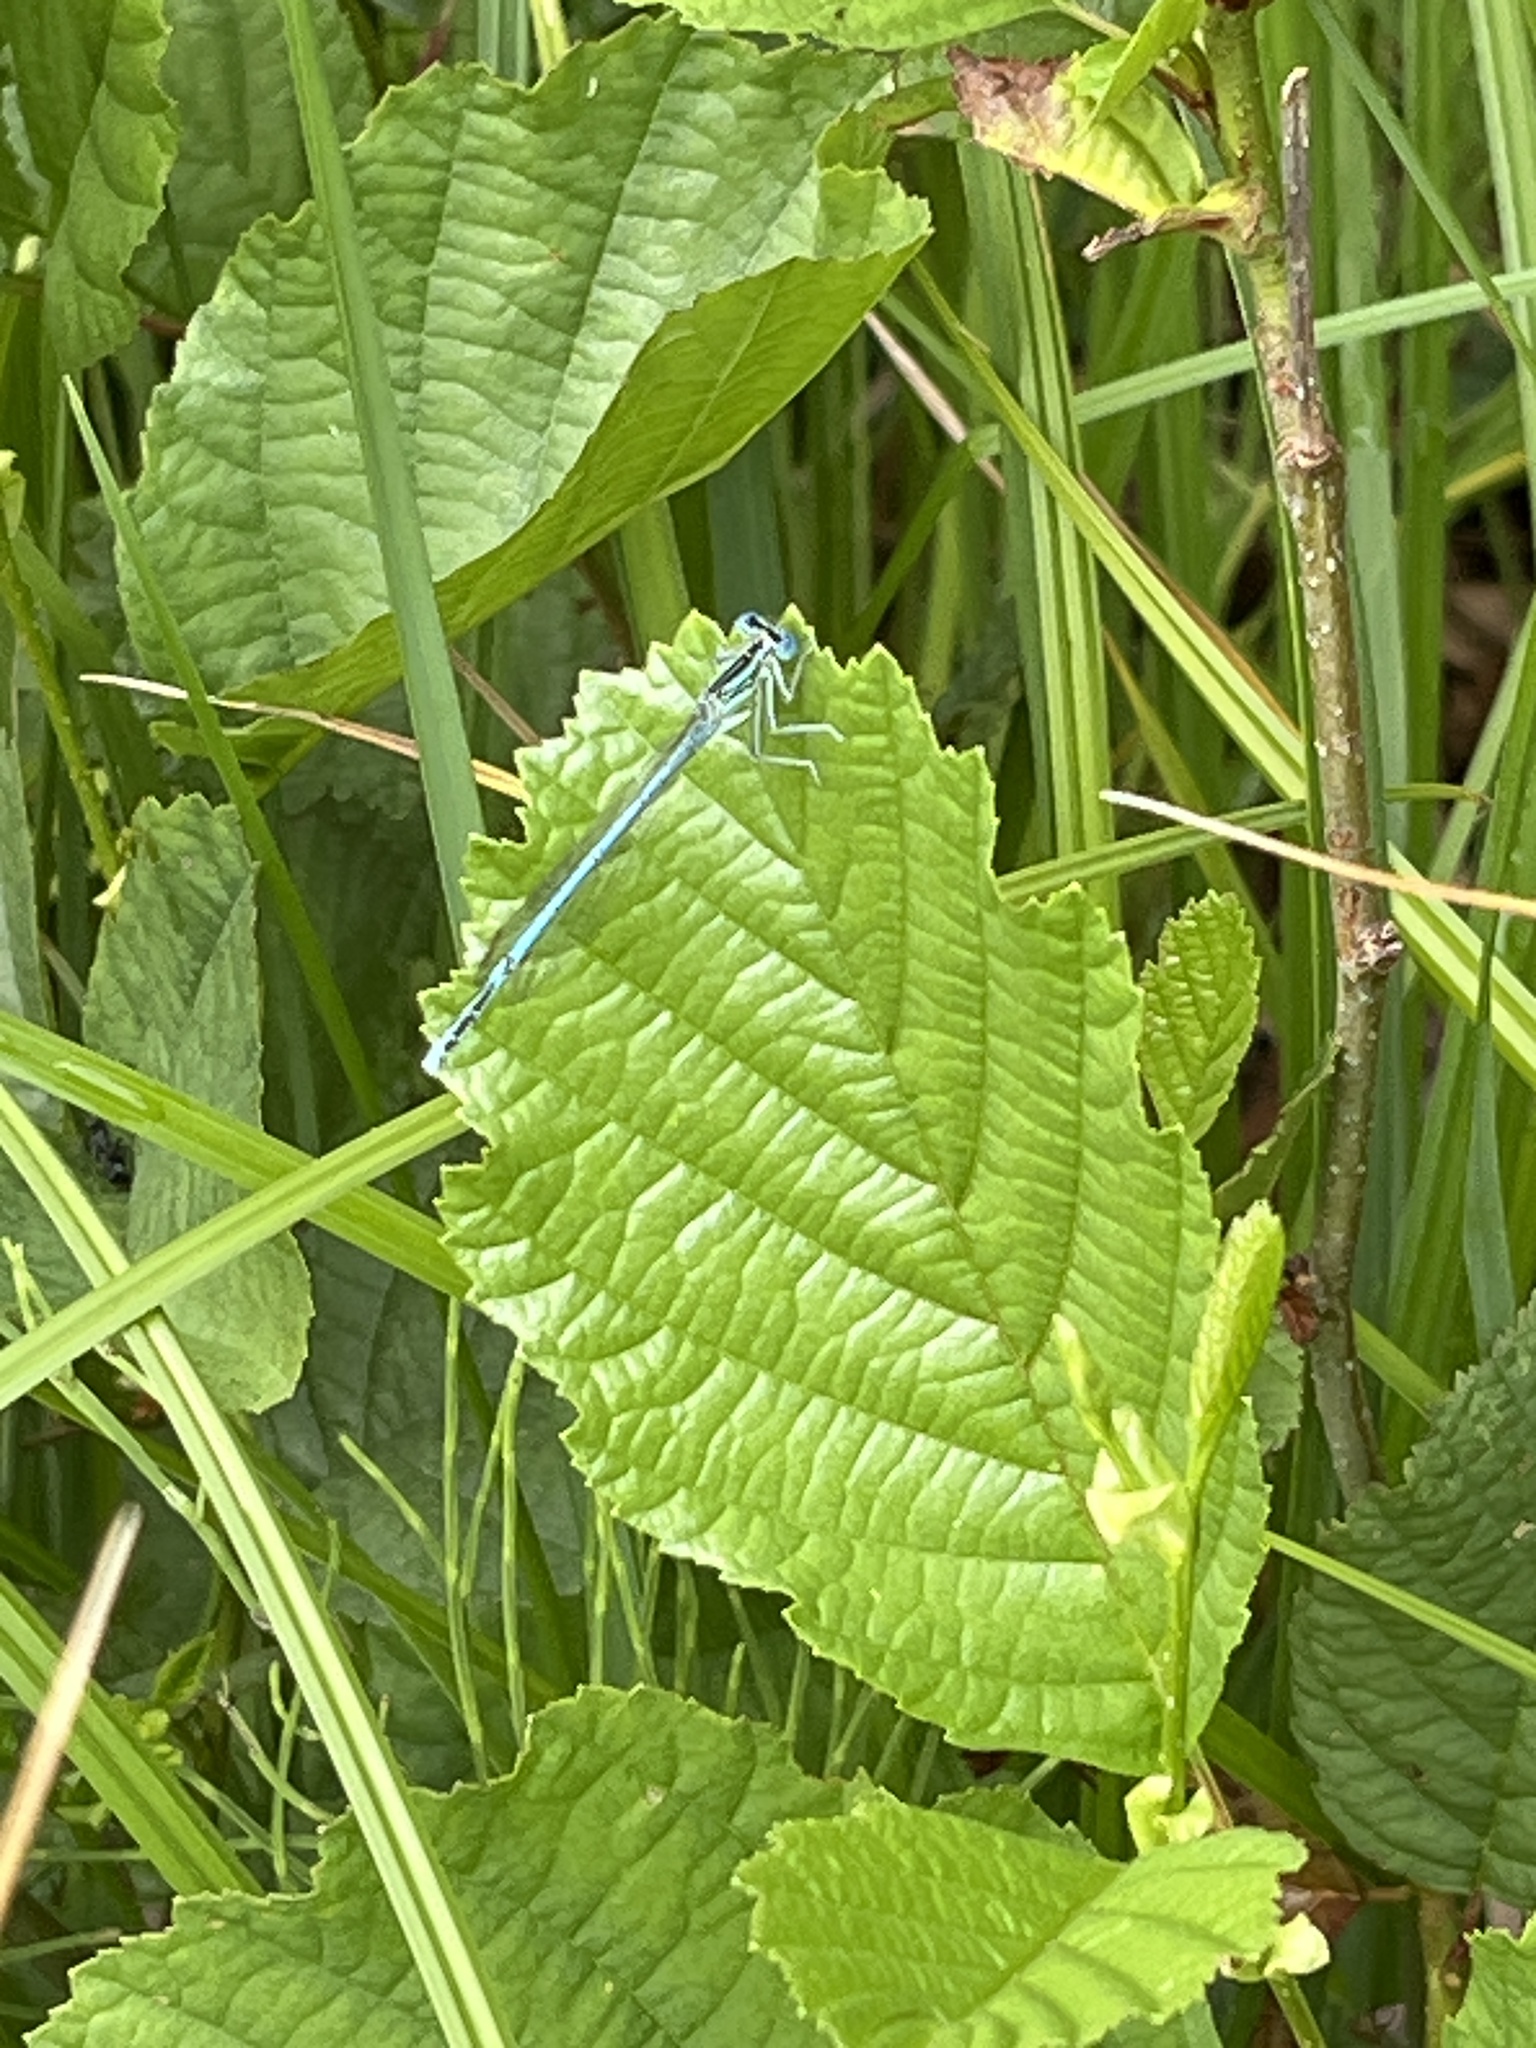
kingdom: Animalia
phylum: Arthropoda
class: Insecta
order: Odonata
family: Platycnemididae
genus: Platycnemis
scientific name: Platycnemis pennipes
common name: White-legged damselfly
